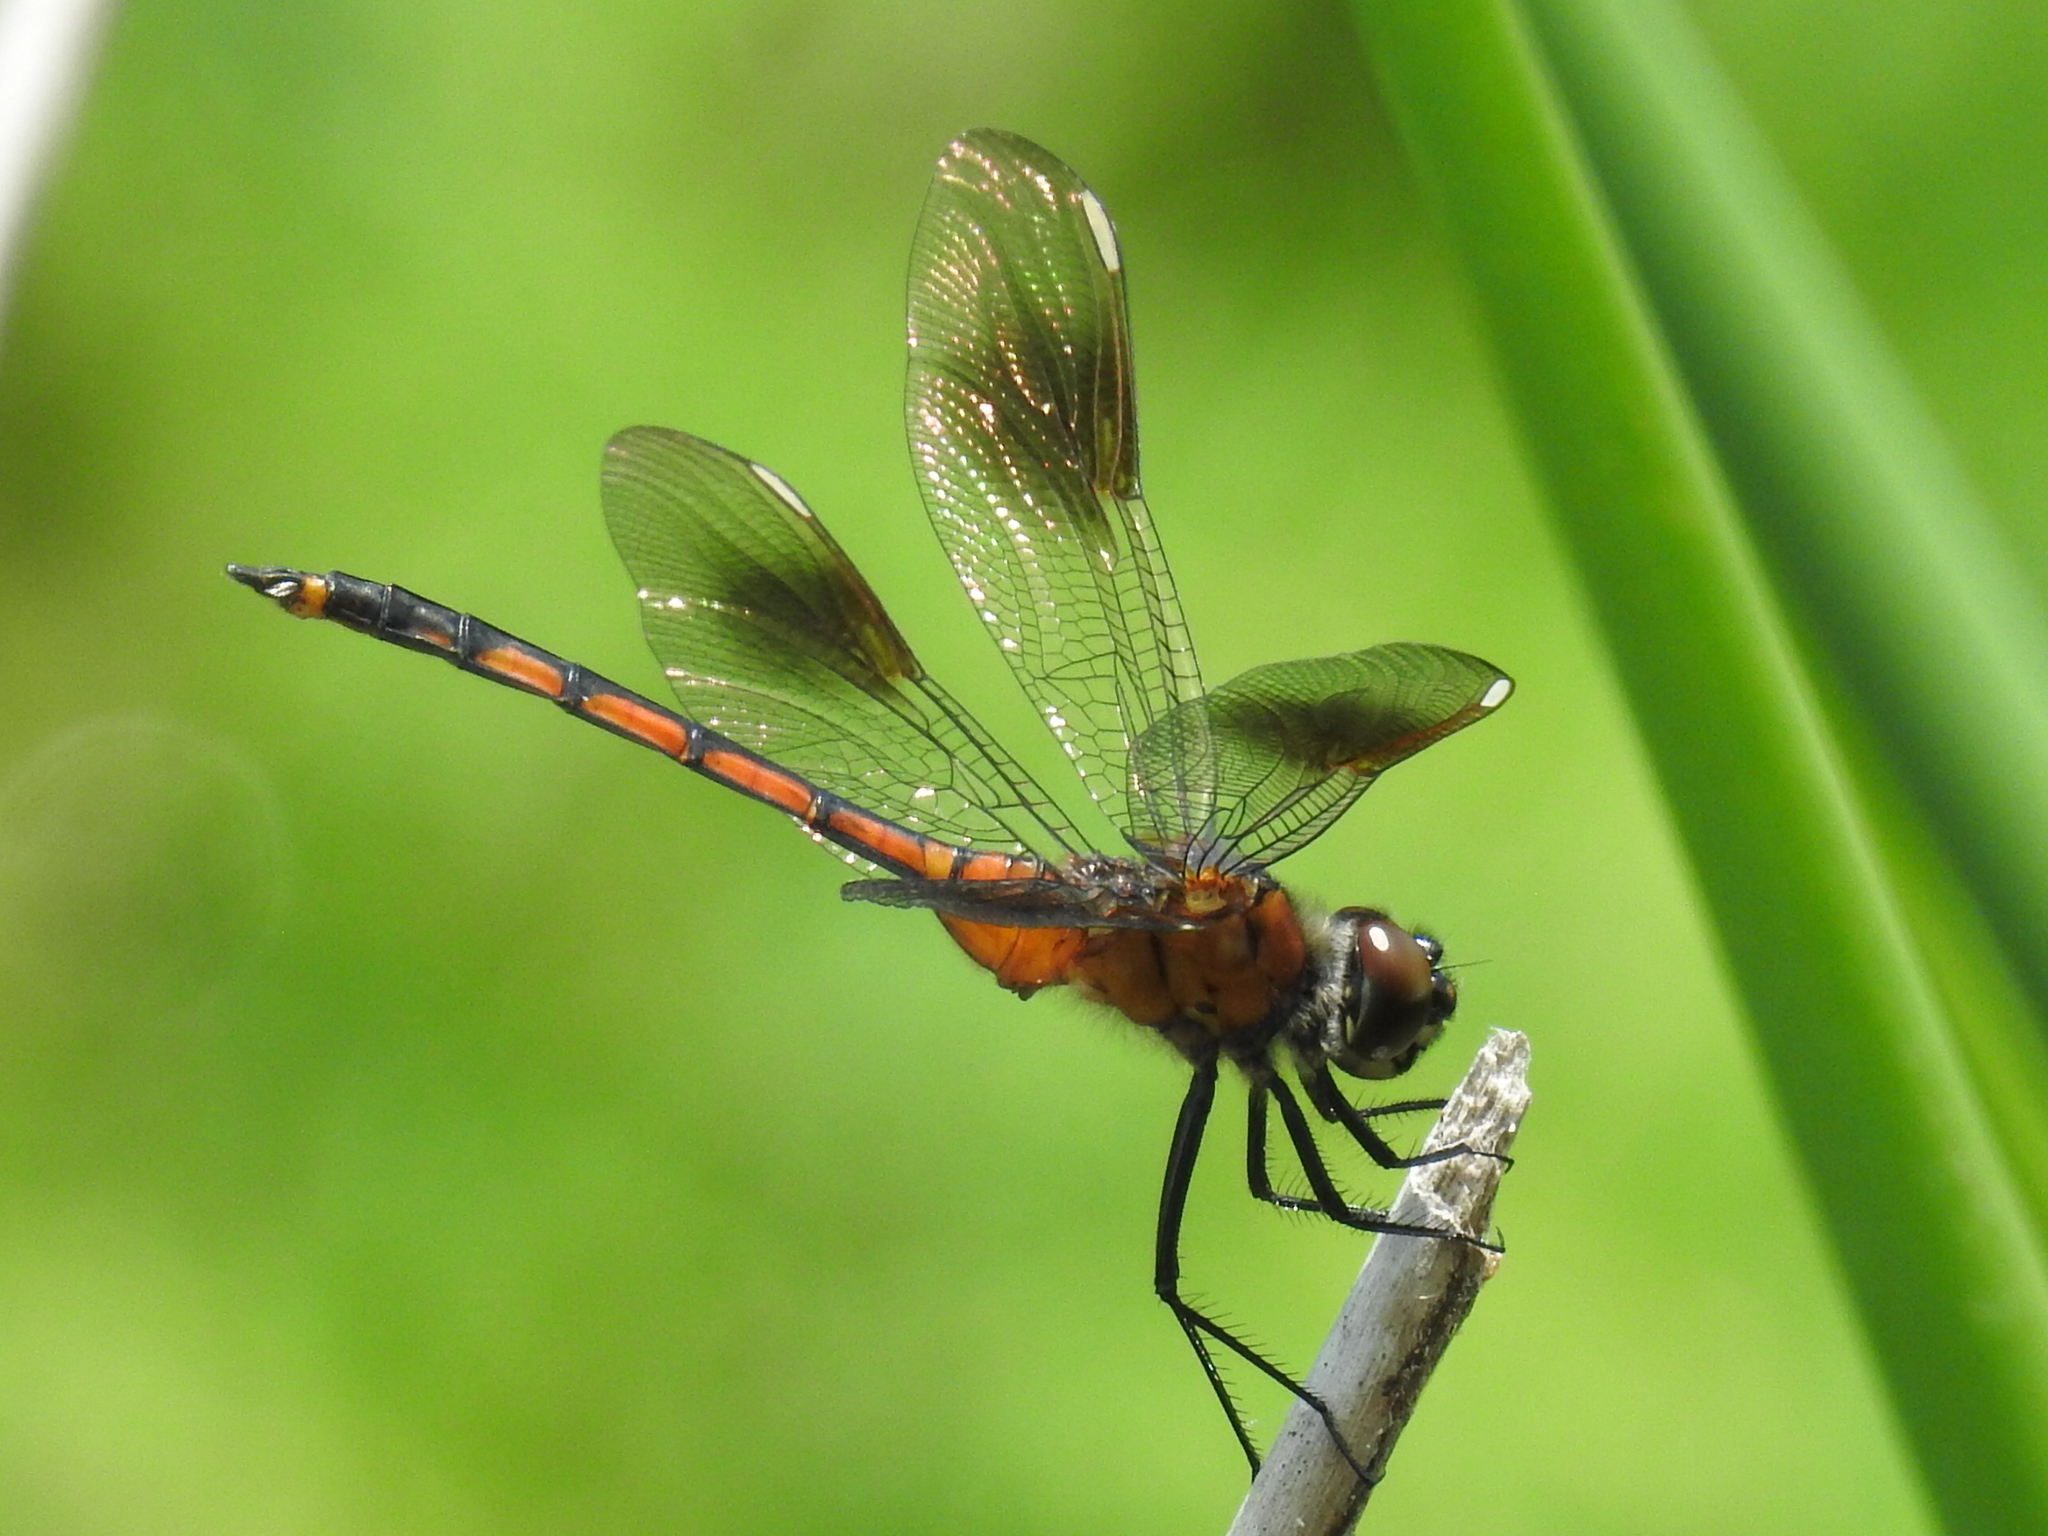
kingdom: Animalia
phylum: Arthropoda
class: Insecta
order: Odonata
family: Libellulidae
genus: Brachymesia
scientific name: Brachymesia gravida
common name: Four-spotted pennant
